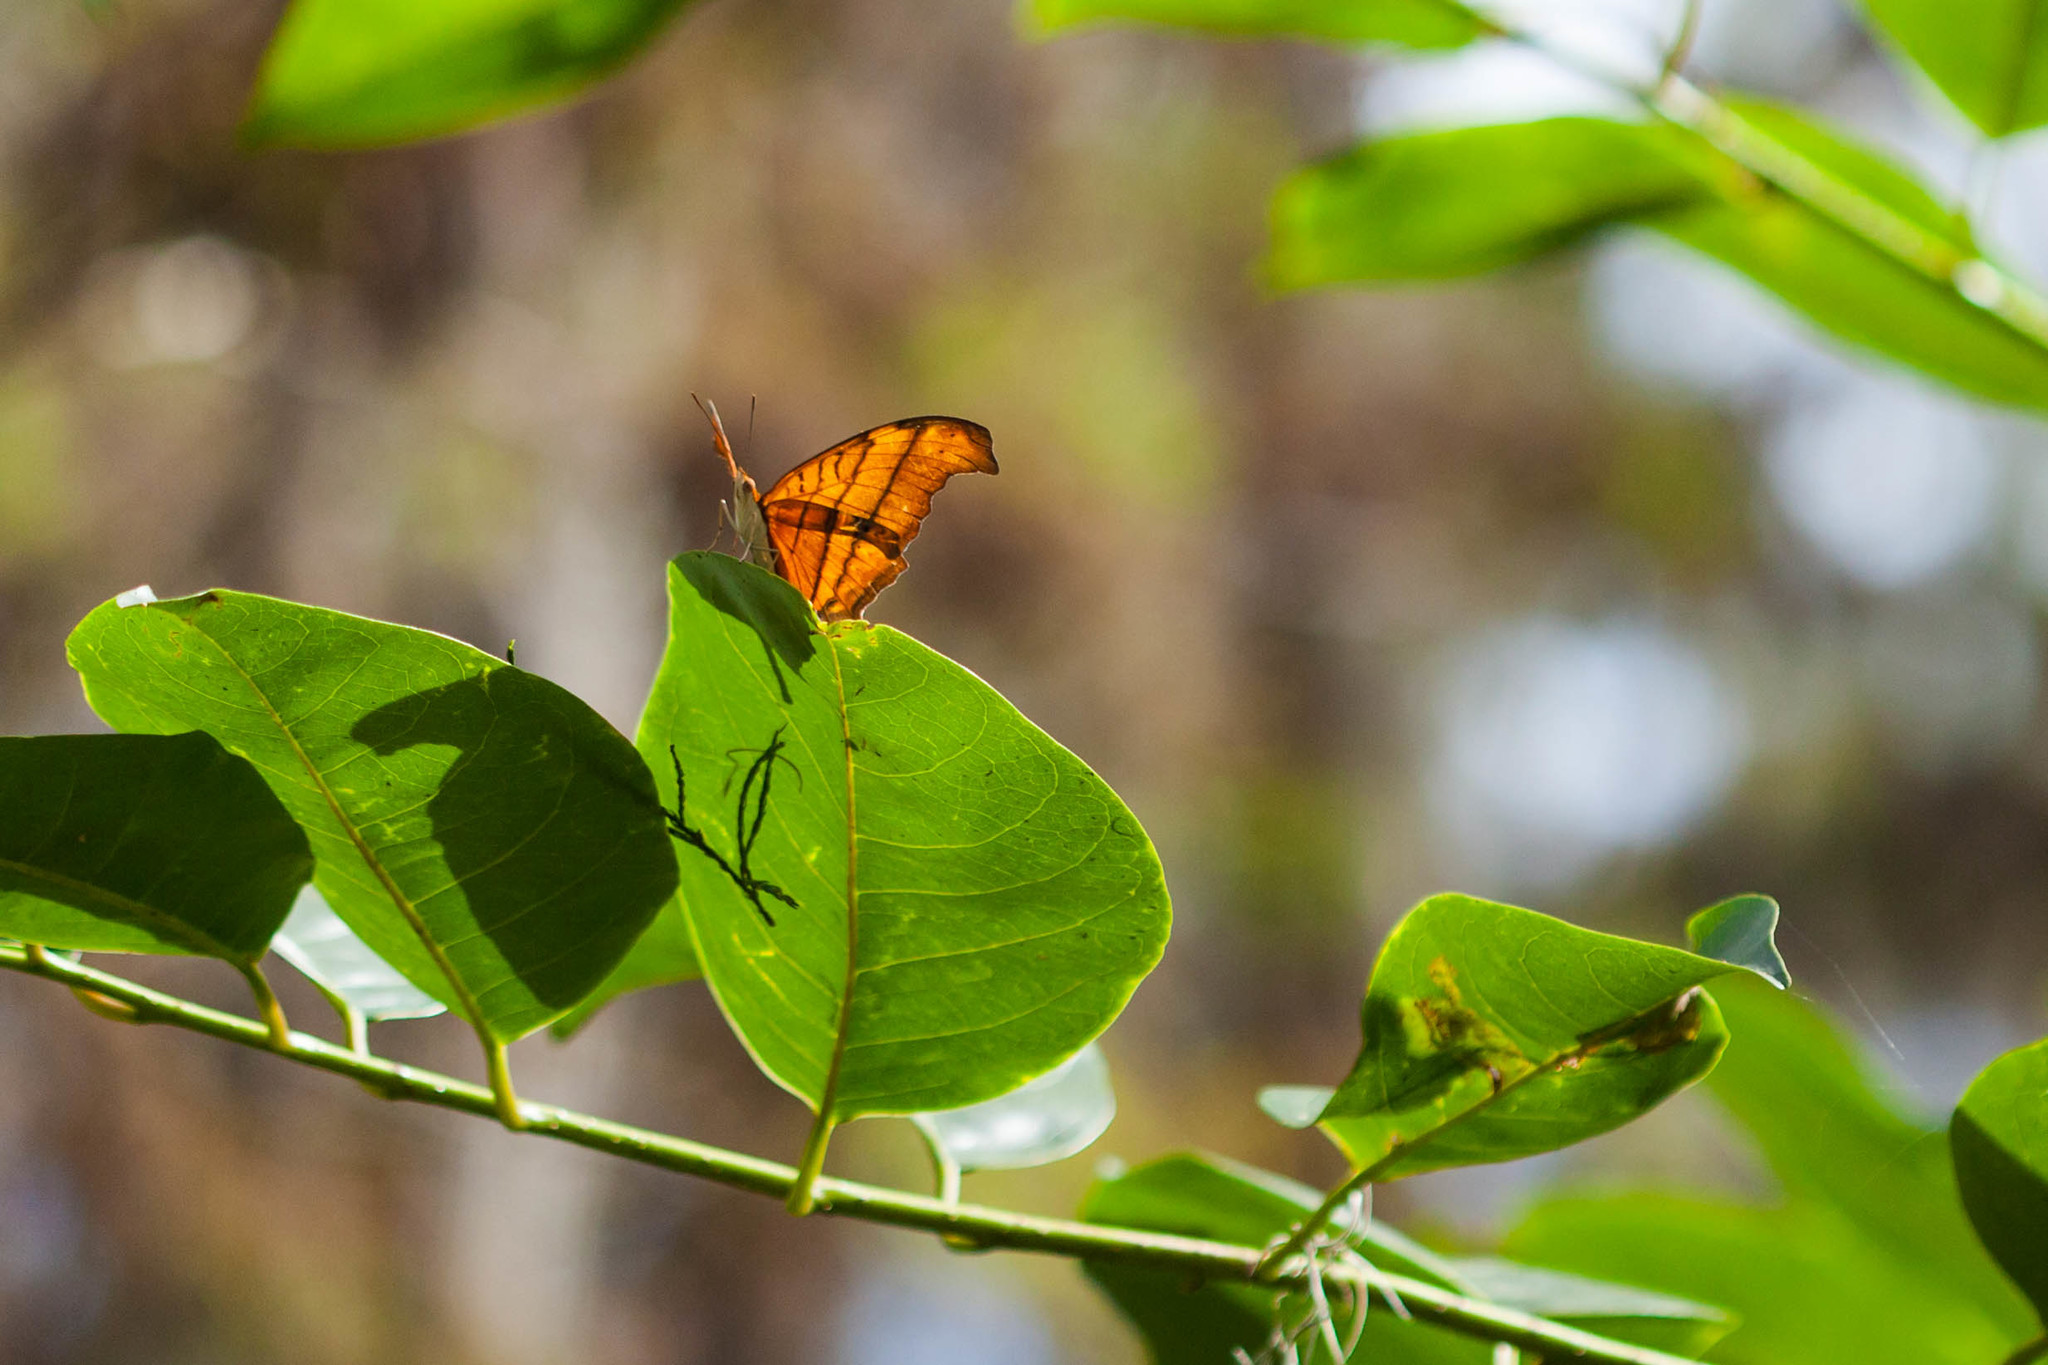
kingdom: Animalia
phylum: Arthropoda
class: Insecta
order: Lepidoptera
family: Nymphalidae
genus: Marpesia
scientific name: Marpesia petreus
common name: Red dagger wing
